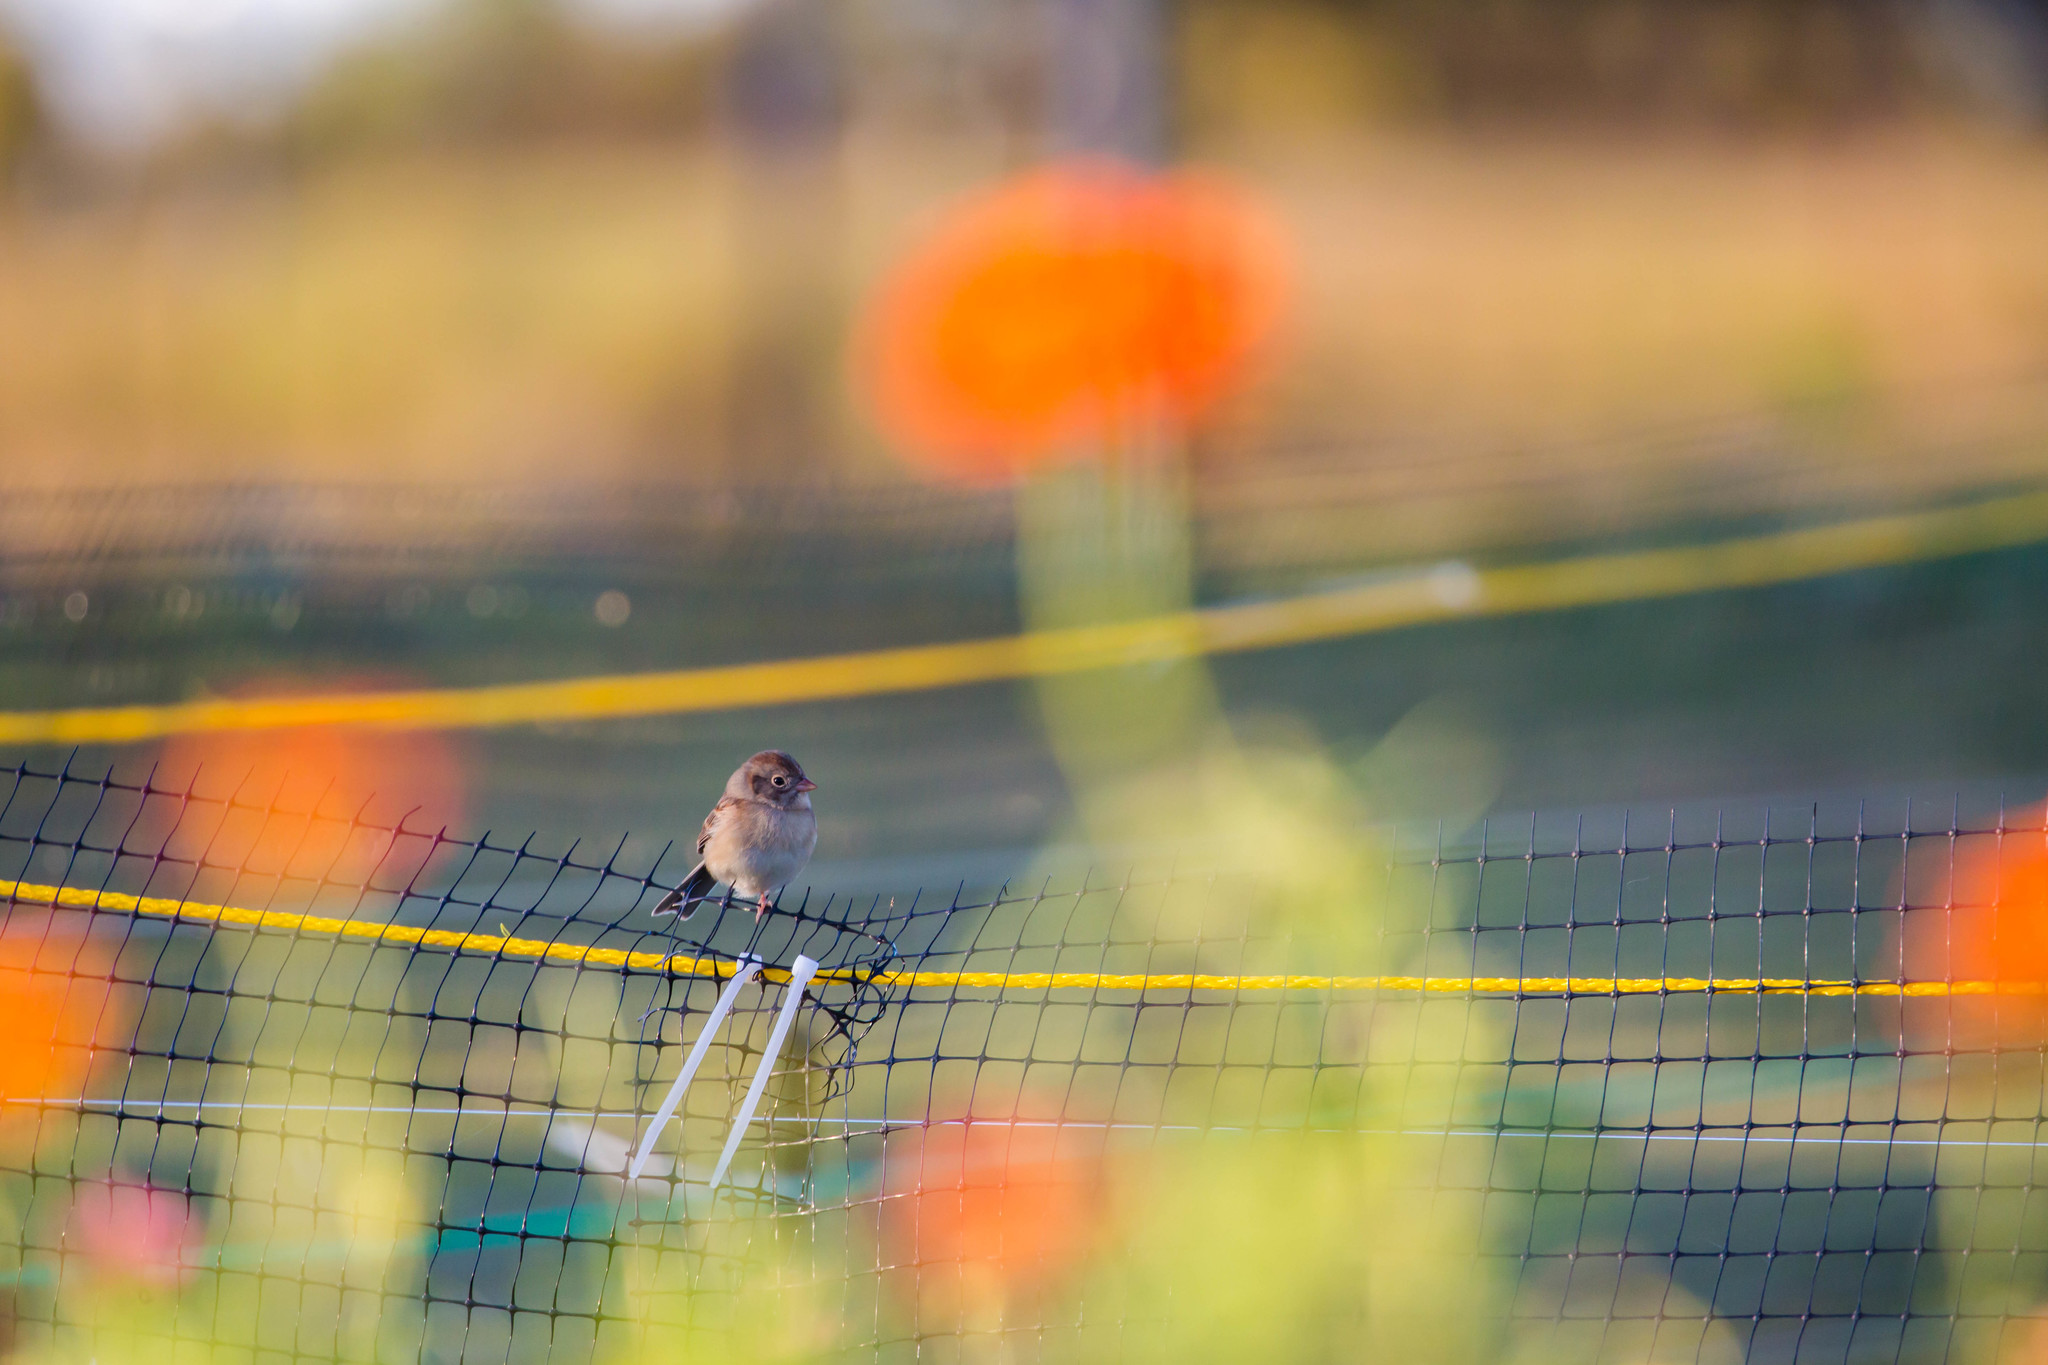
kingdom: Animalia
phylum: Chordata
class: Aves
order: Passeriformes
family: Passerellidae
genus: Spizella
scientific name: Spizella pusilla
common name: Field sparrow
